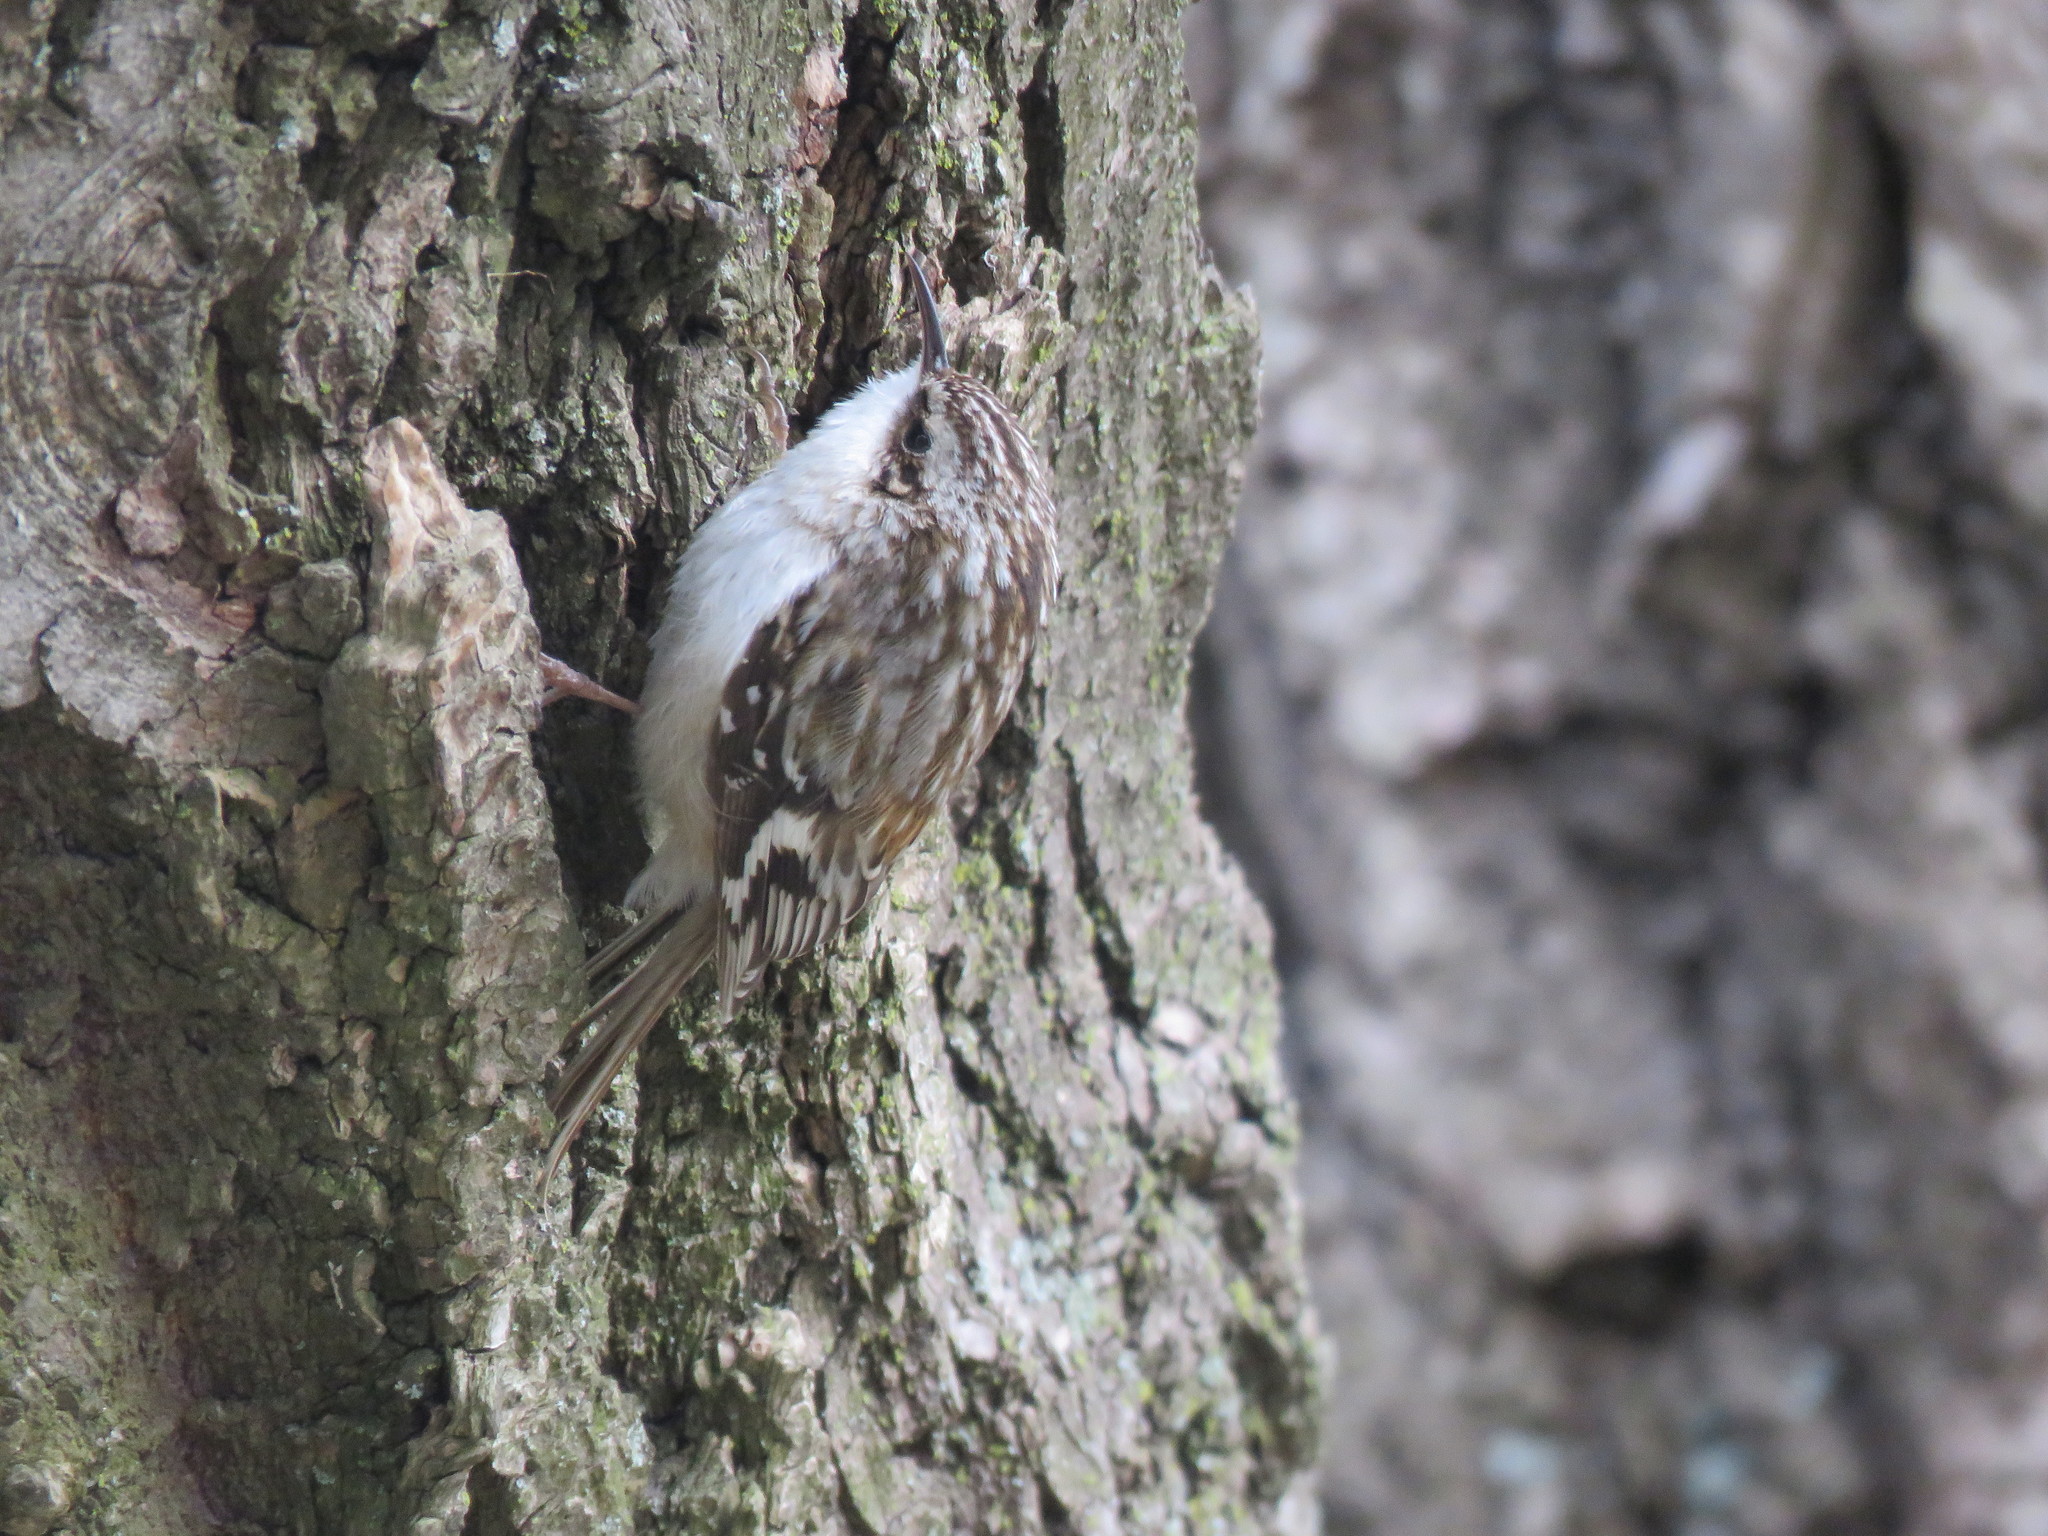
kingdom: Animalia
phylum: Chordata
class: Aves
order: Passeriformes
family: Certhiidae
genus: Certhia
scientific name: Certhia americana
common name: Brown creeper
